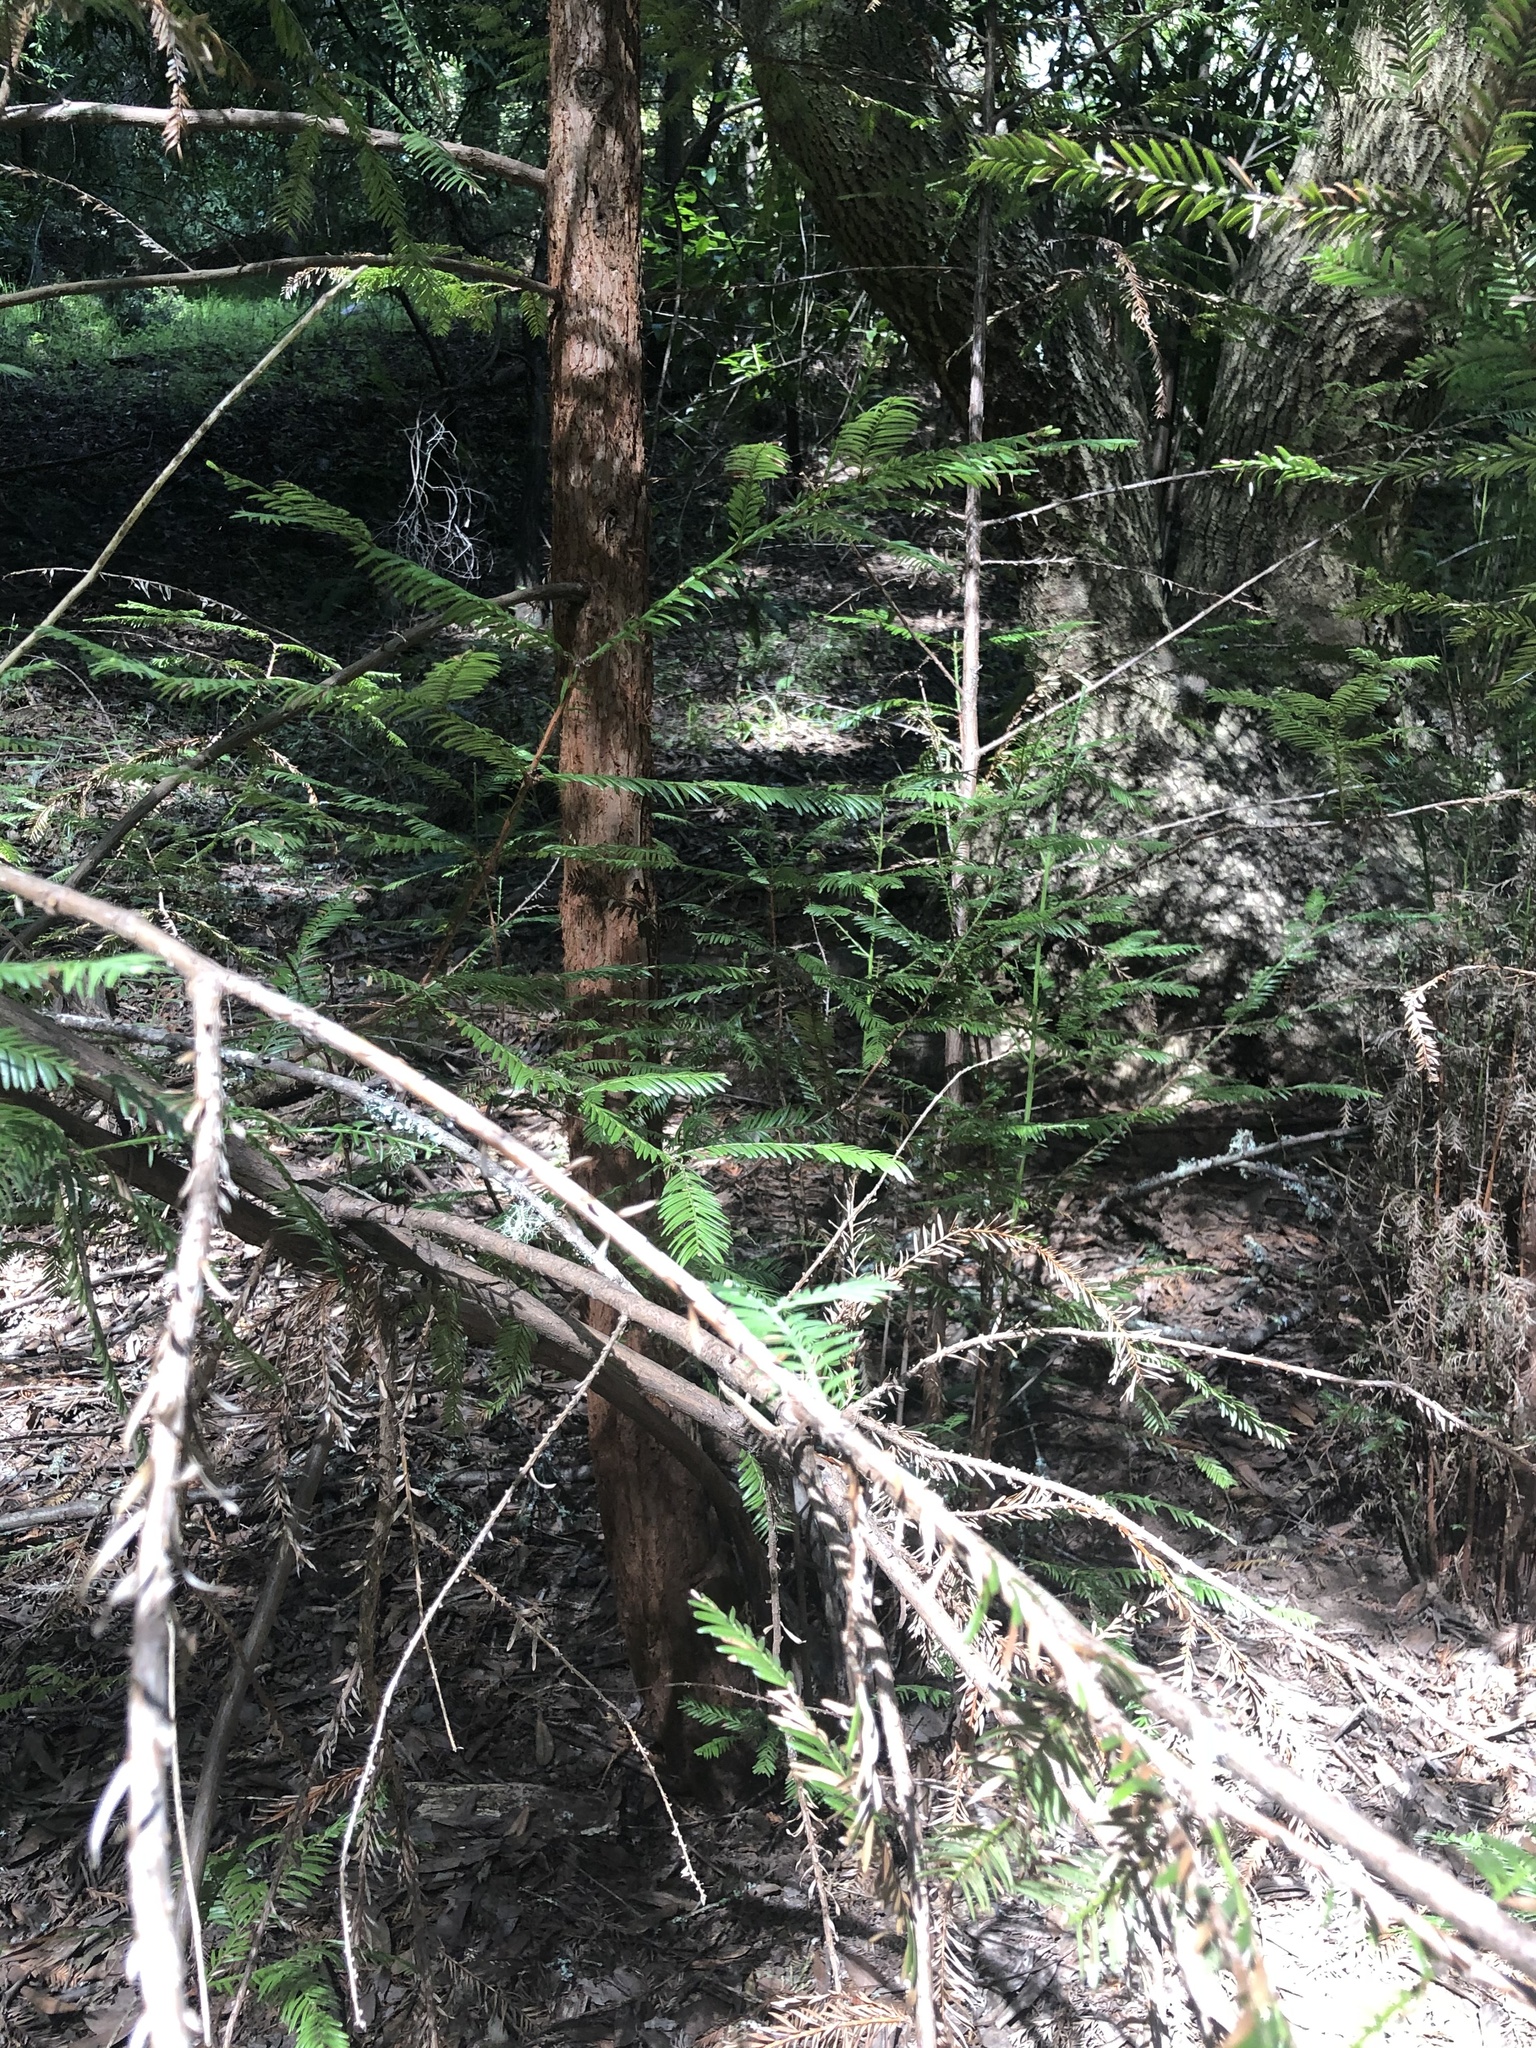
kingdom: Plantae
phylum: Tracheophyta
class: Pinopsida
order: Pinales
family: Cupressaceae
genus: Sequoia
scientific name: Sequoia sempervirens
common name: Coast redwood
